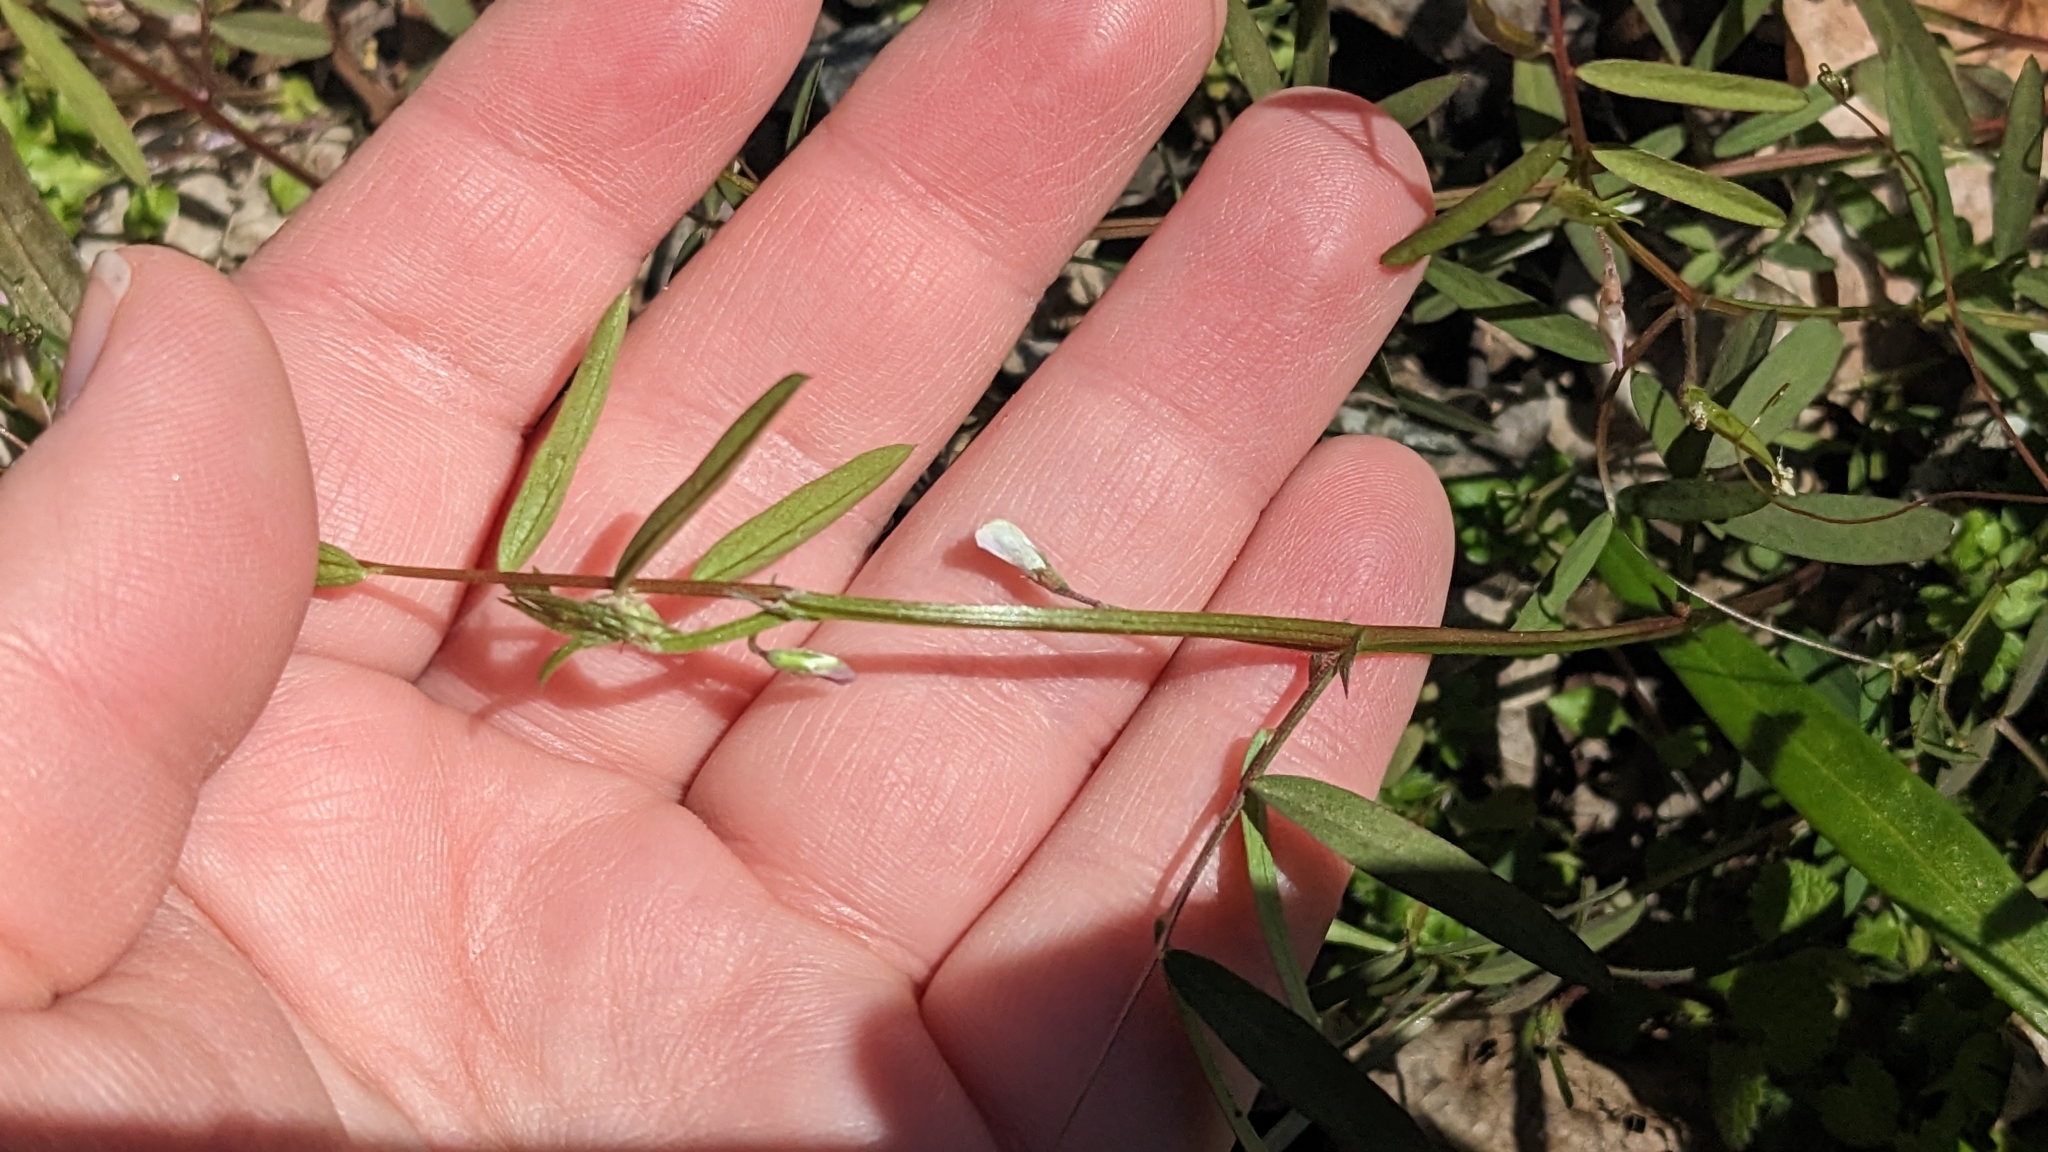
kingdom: Plantae
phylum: Tracheophyta
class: Magnoliopsida
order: Fabales
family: Fabaceae
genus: Vicia
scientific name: Vicia minutiflora
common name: Pygmy-flower vetch
